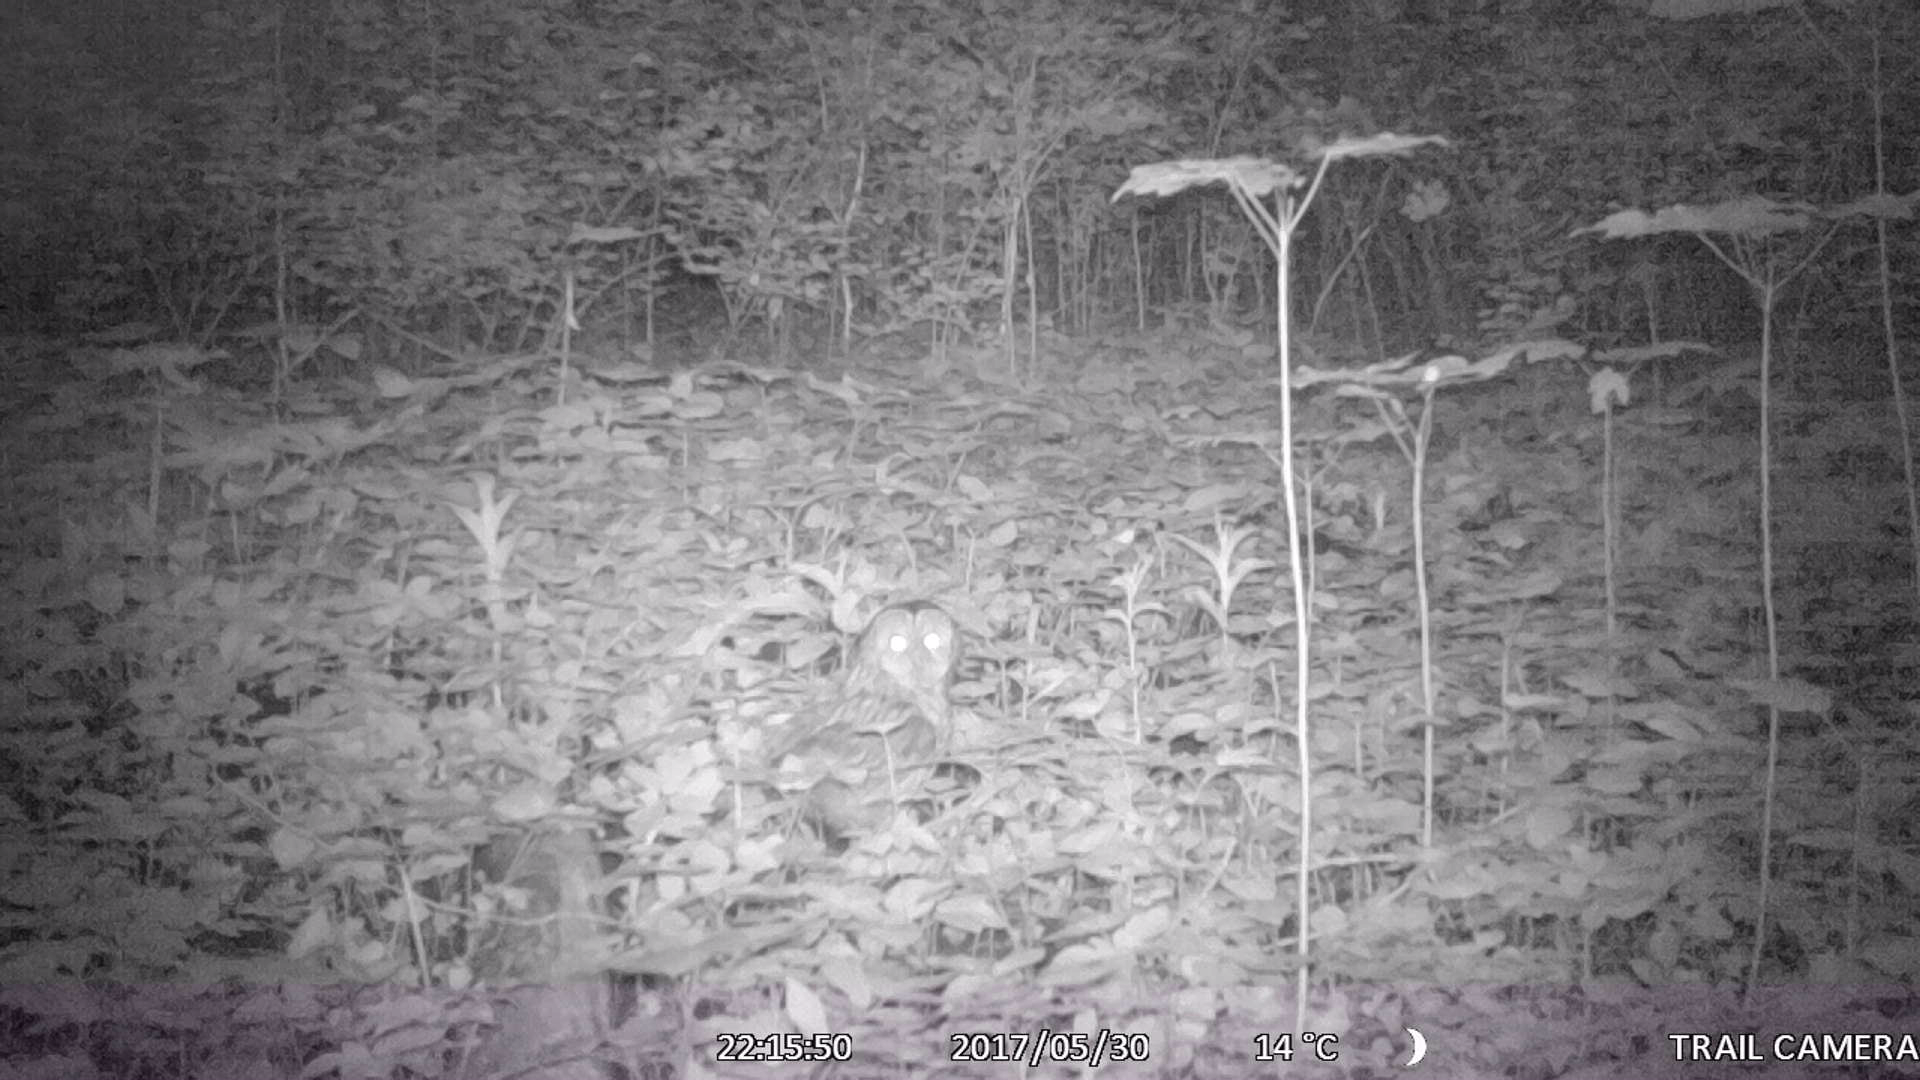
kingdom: Animalia
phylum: Chordata
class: Aves
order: Strigiformes
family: Strigidae
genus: Strix
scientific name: Strix aluco
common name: Tawny owl
